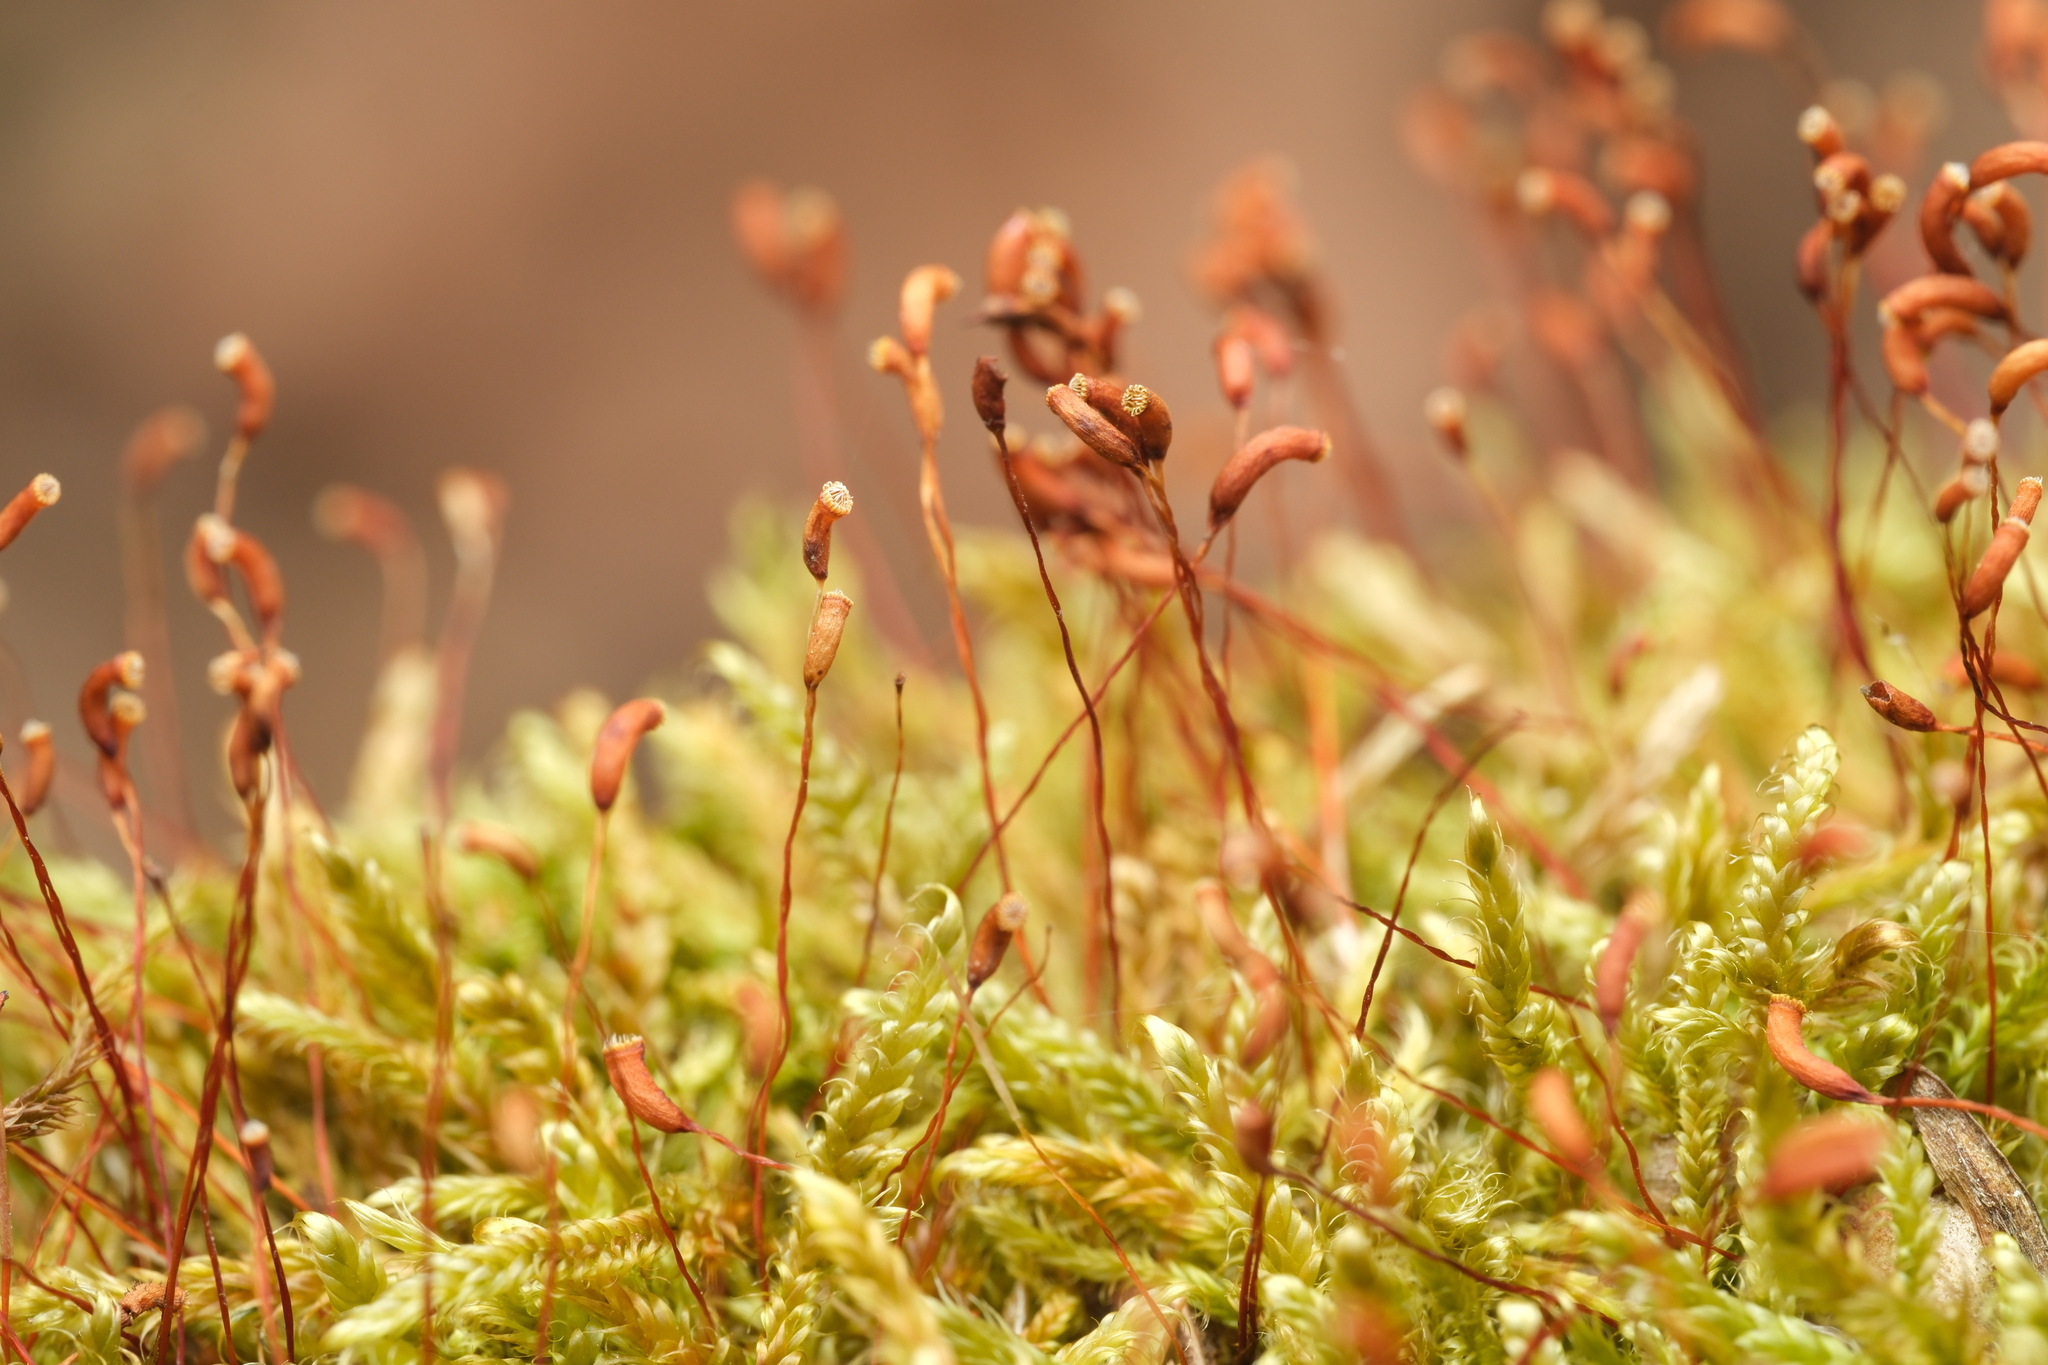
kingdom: Plantae
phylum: Bryophyta
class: Bryopsida
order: Hypnales
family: Hypnaceae
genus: Hypnum
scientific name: Hypnum cupressiforme
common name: Cypress-leaved plait-moss
